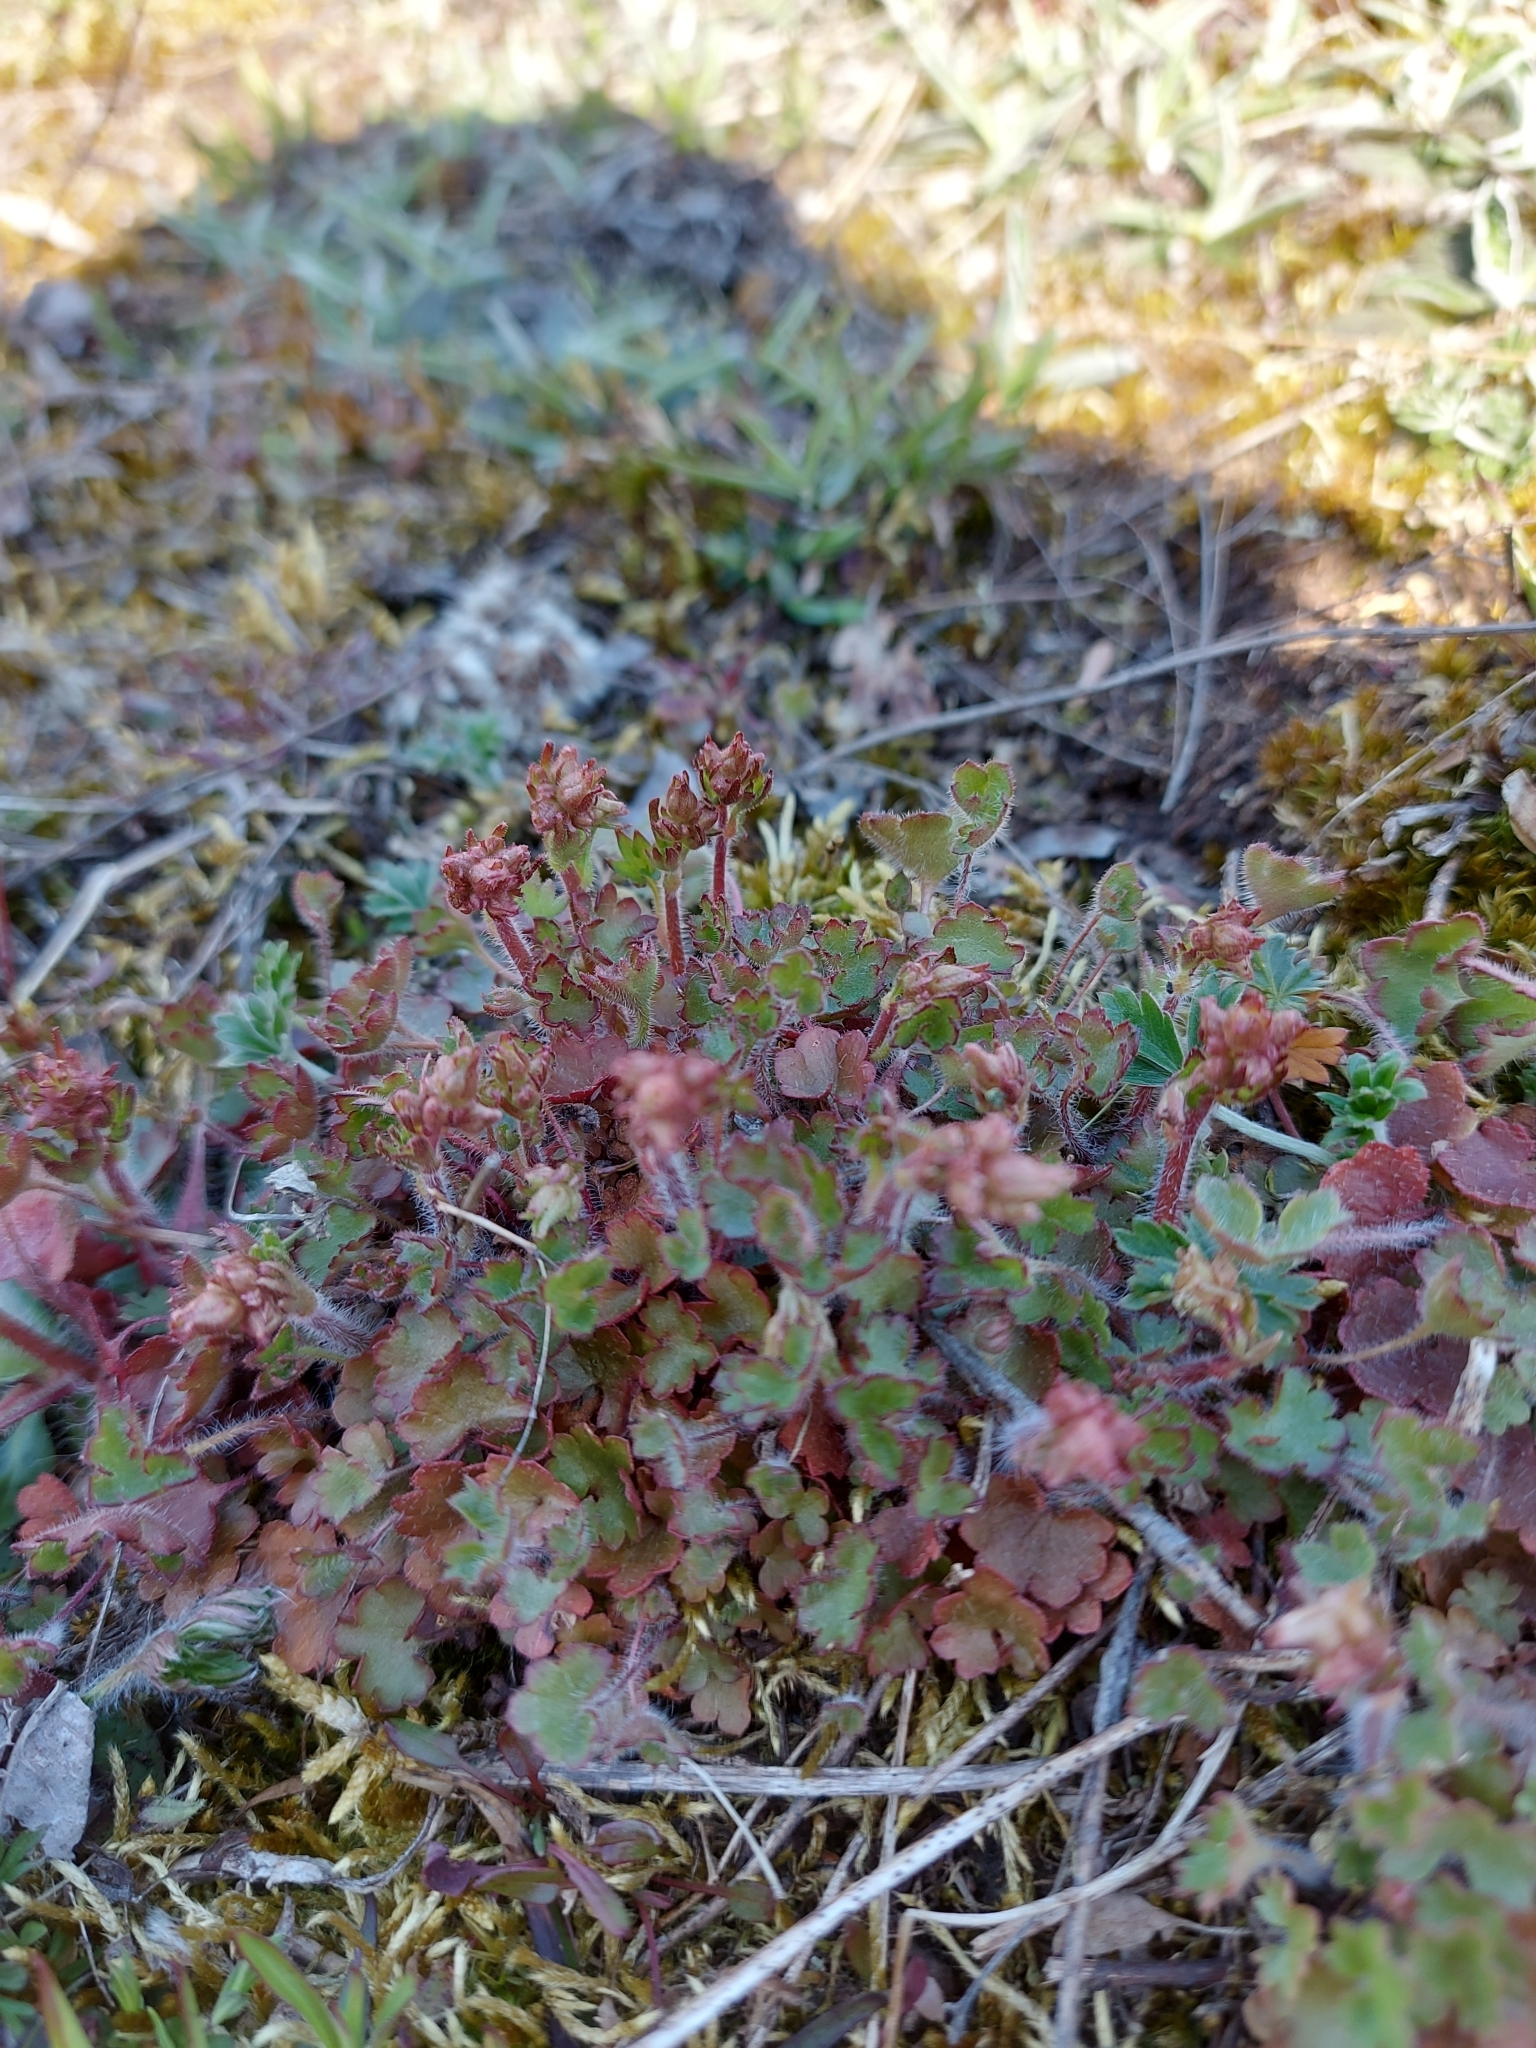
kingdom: Plantae
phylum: Tracheophyta
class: Magnoliopsida
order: Saxifragales
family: Saxifragaceae
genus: Saxifraga
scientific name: Saxifraga granulata
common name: Meadow saxifrage
